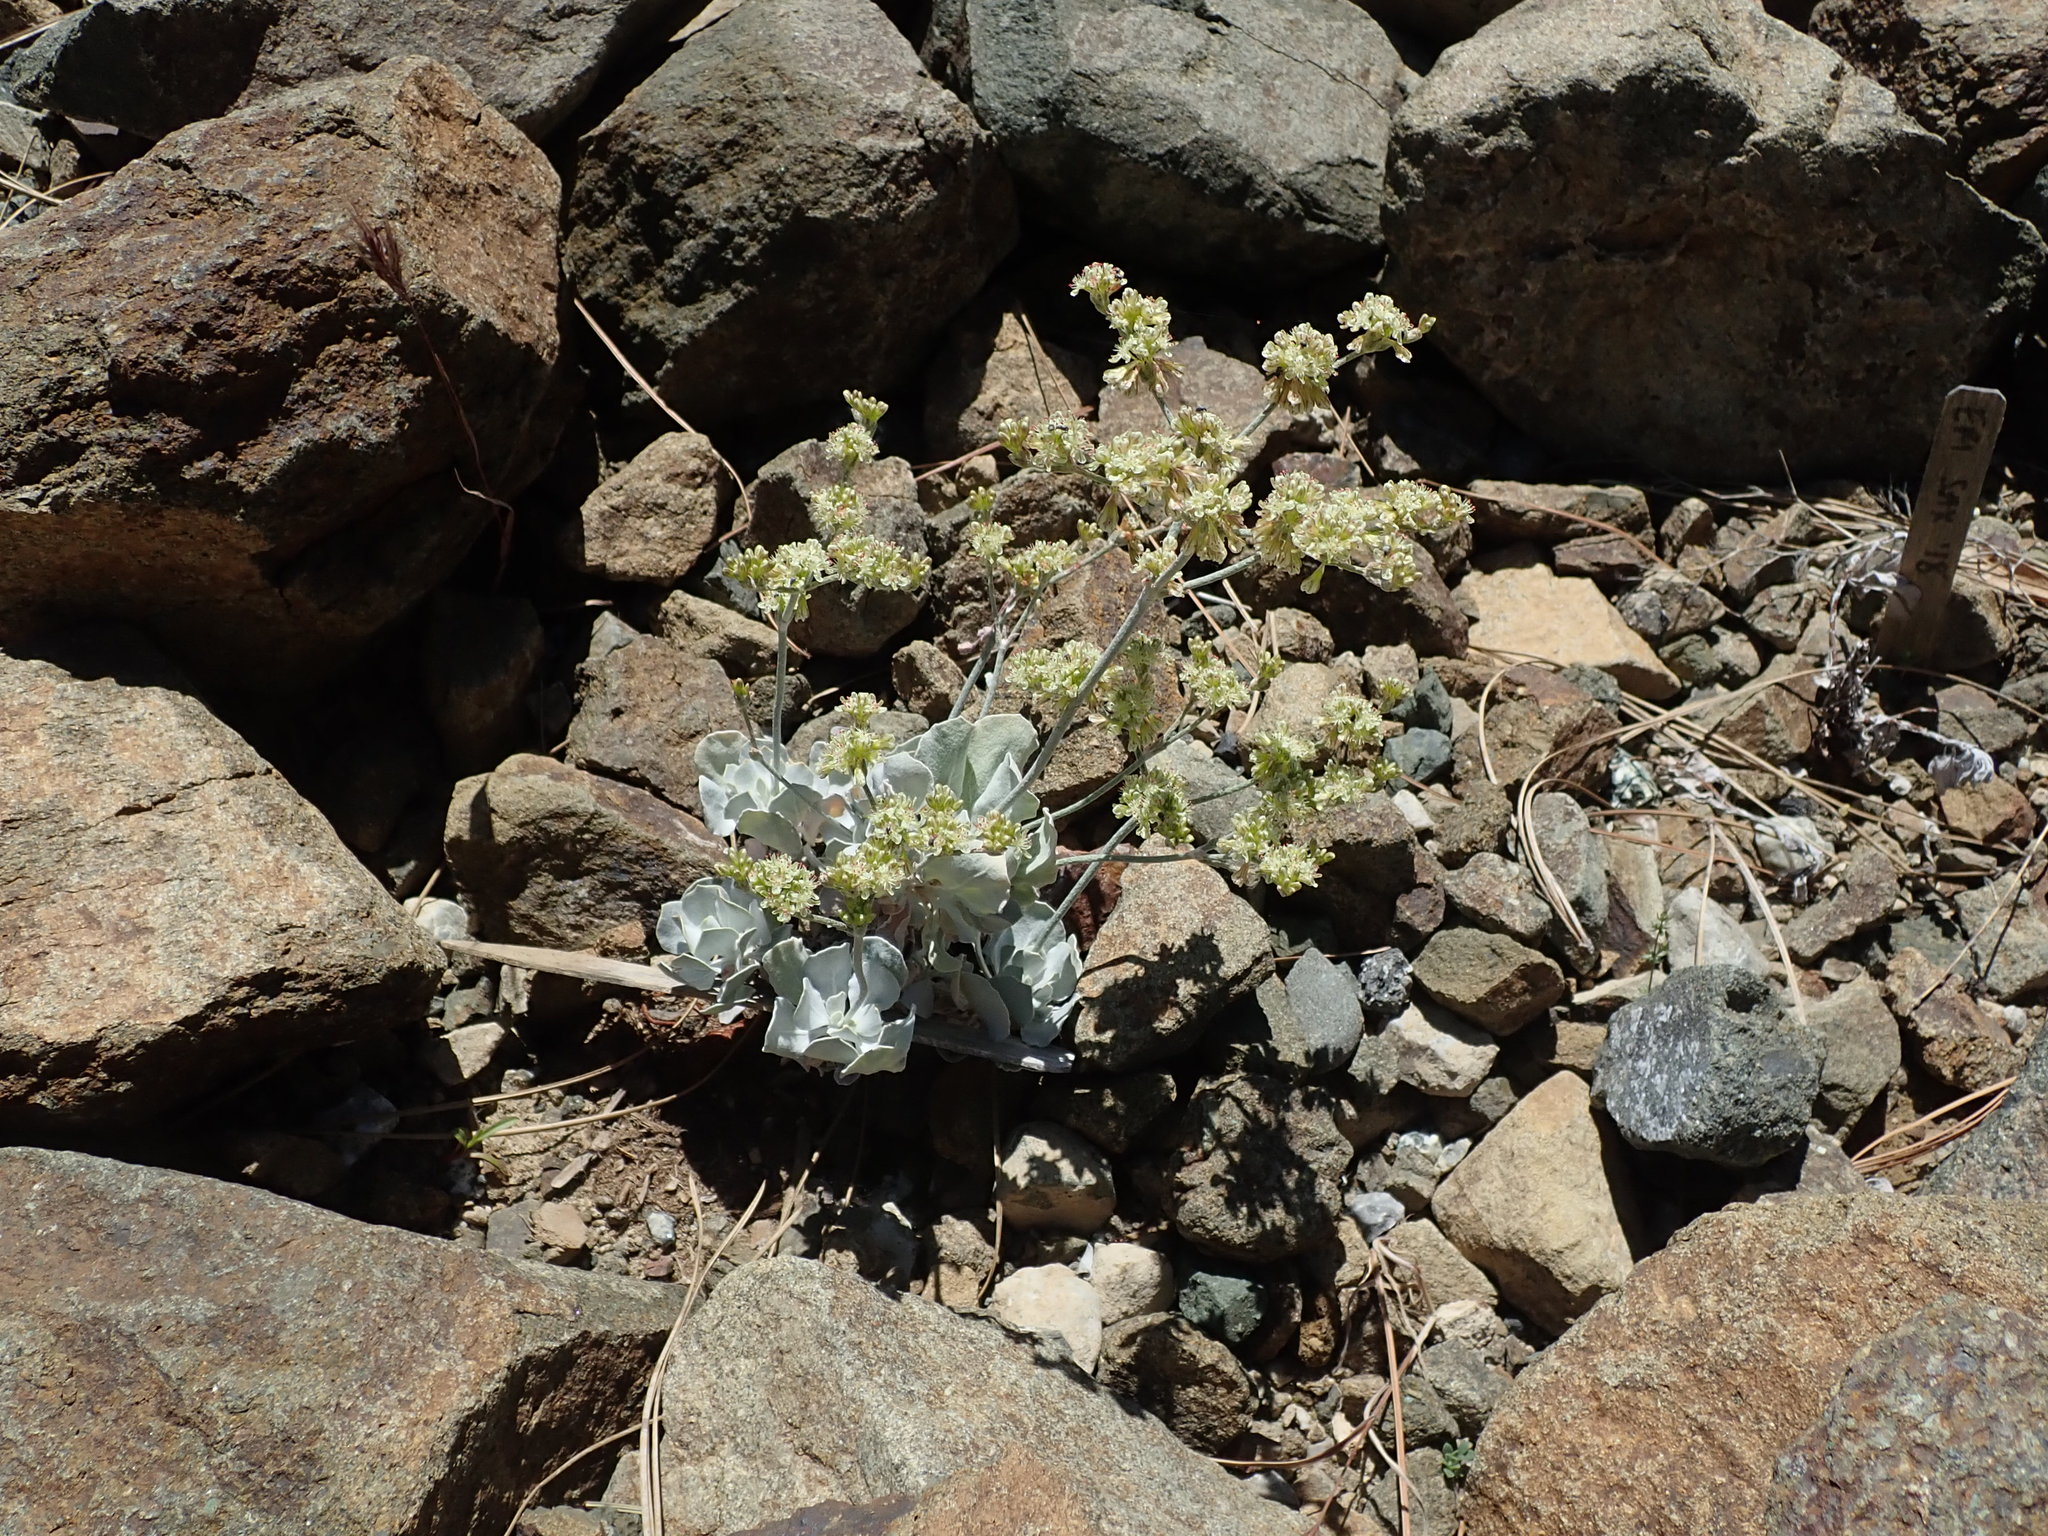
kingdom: Plantae
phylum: Tracheophyta
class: Magnoliopsida
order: Caryophyllales
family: Polygonaceae
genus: Eriogonum
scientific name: Eriogonum saxatile
